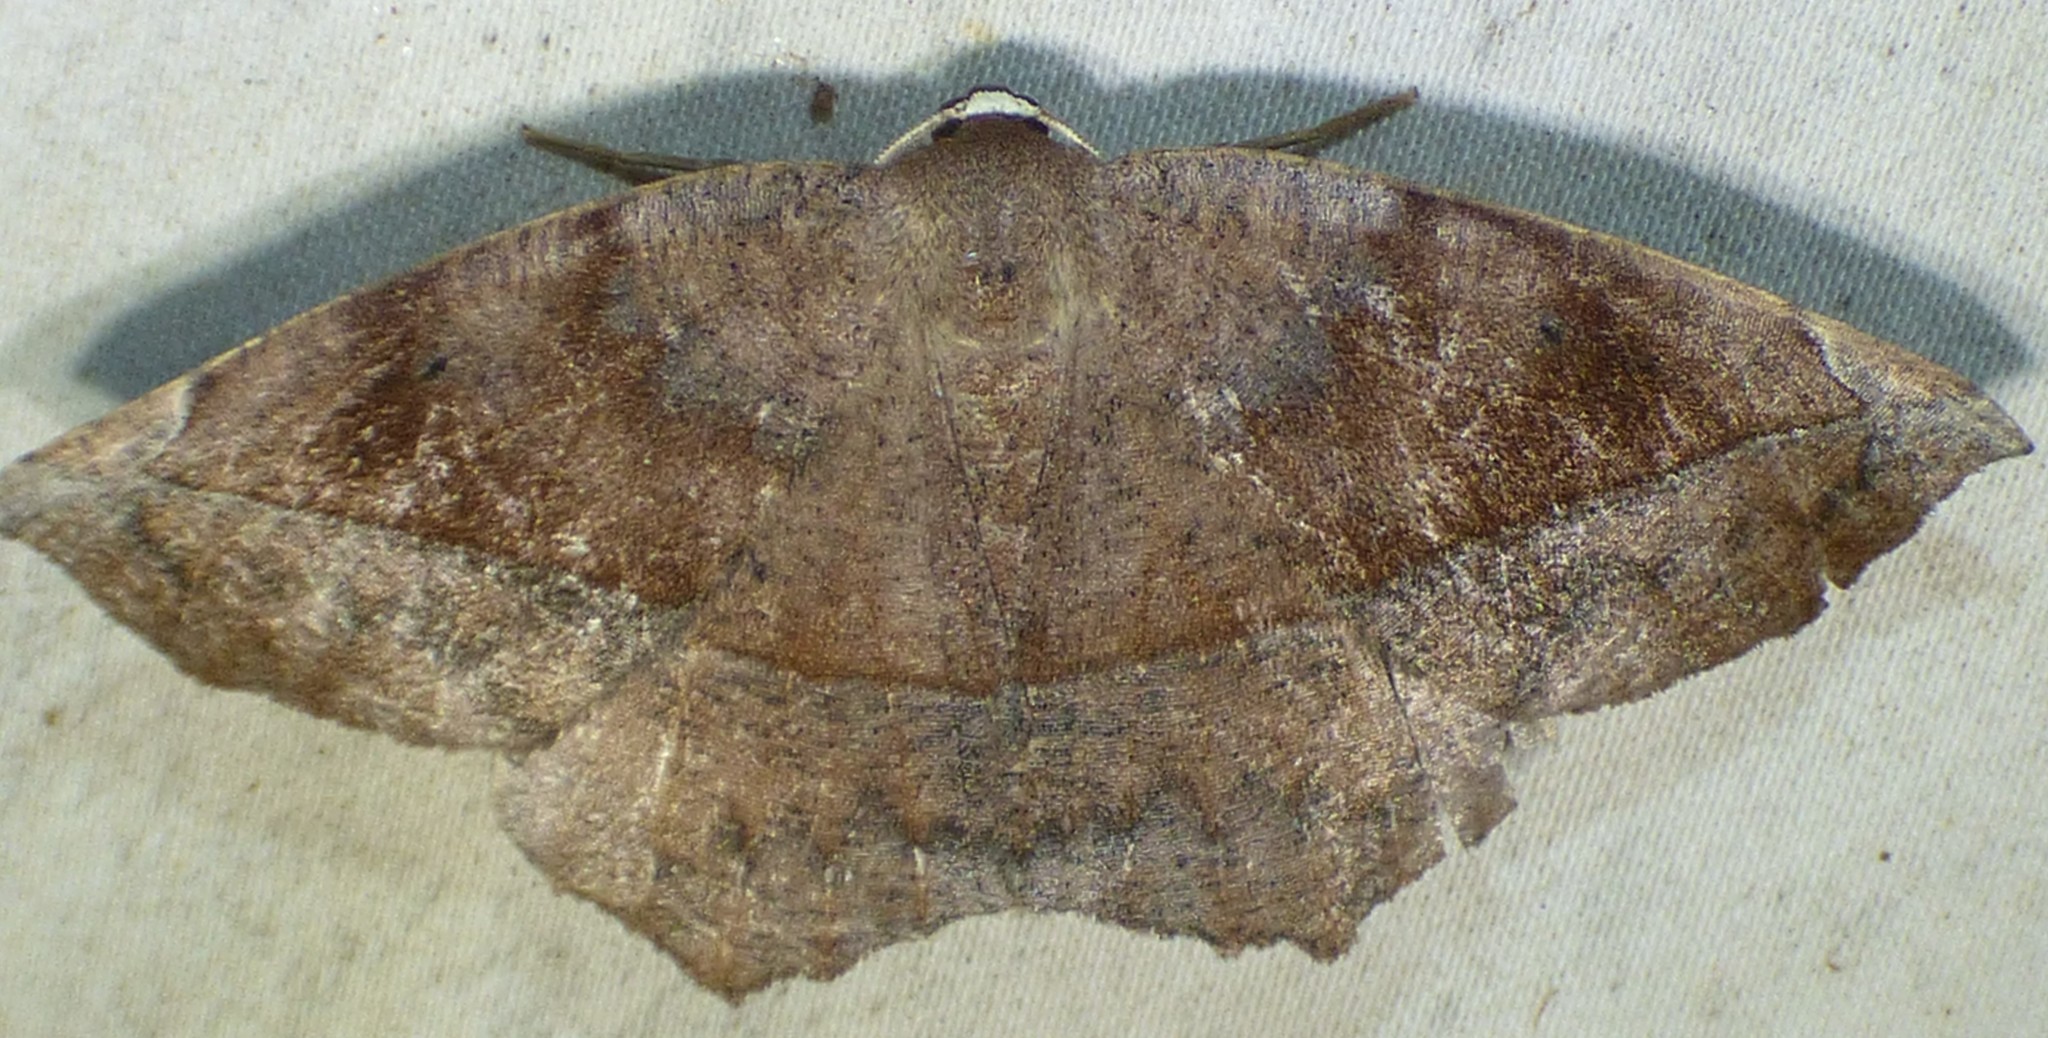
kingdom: Animalia
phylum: Arthropoda
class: Insecta
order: Lepidoptera
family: Geometridae
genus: Eutrapela
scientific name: Eutrapela clemataria
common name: Curved-toothed geometer
